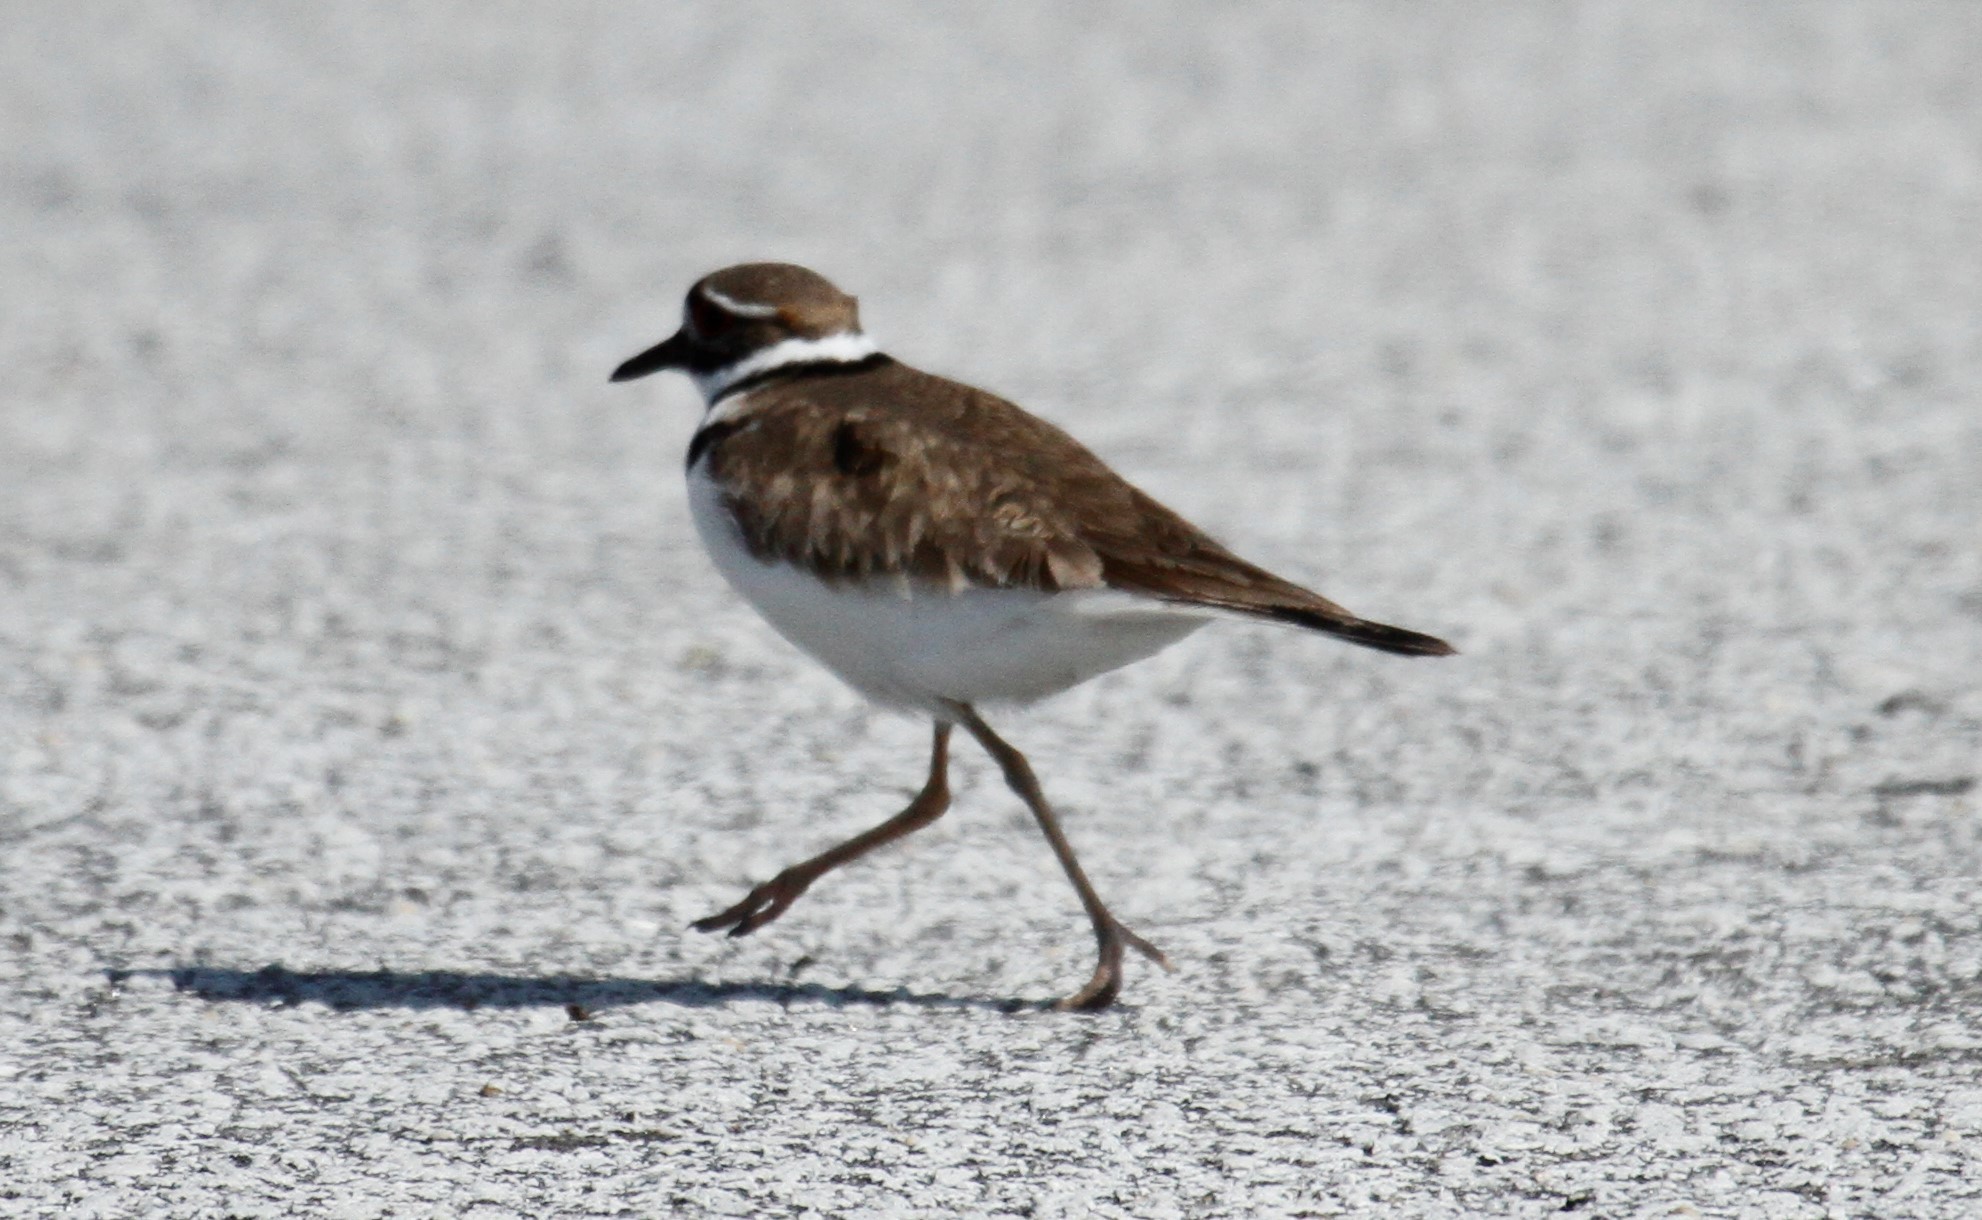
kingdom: Animalia
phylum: Chordata
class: Aves
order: Charadriiformes
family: Charadriidae
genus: Charadrius
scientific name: Charadrius vociferus
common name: Killdeer
